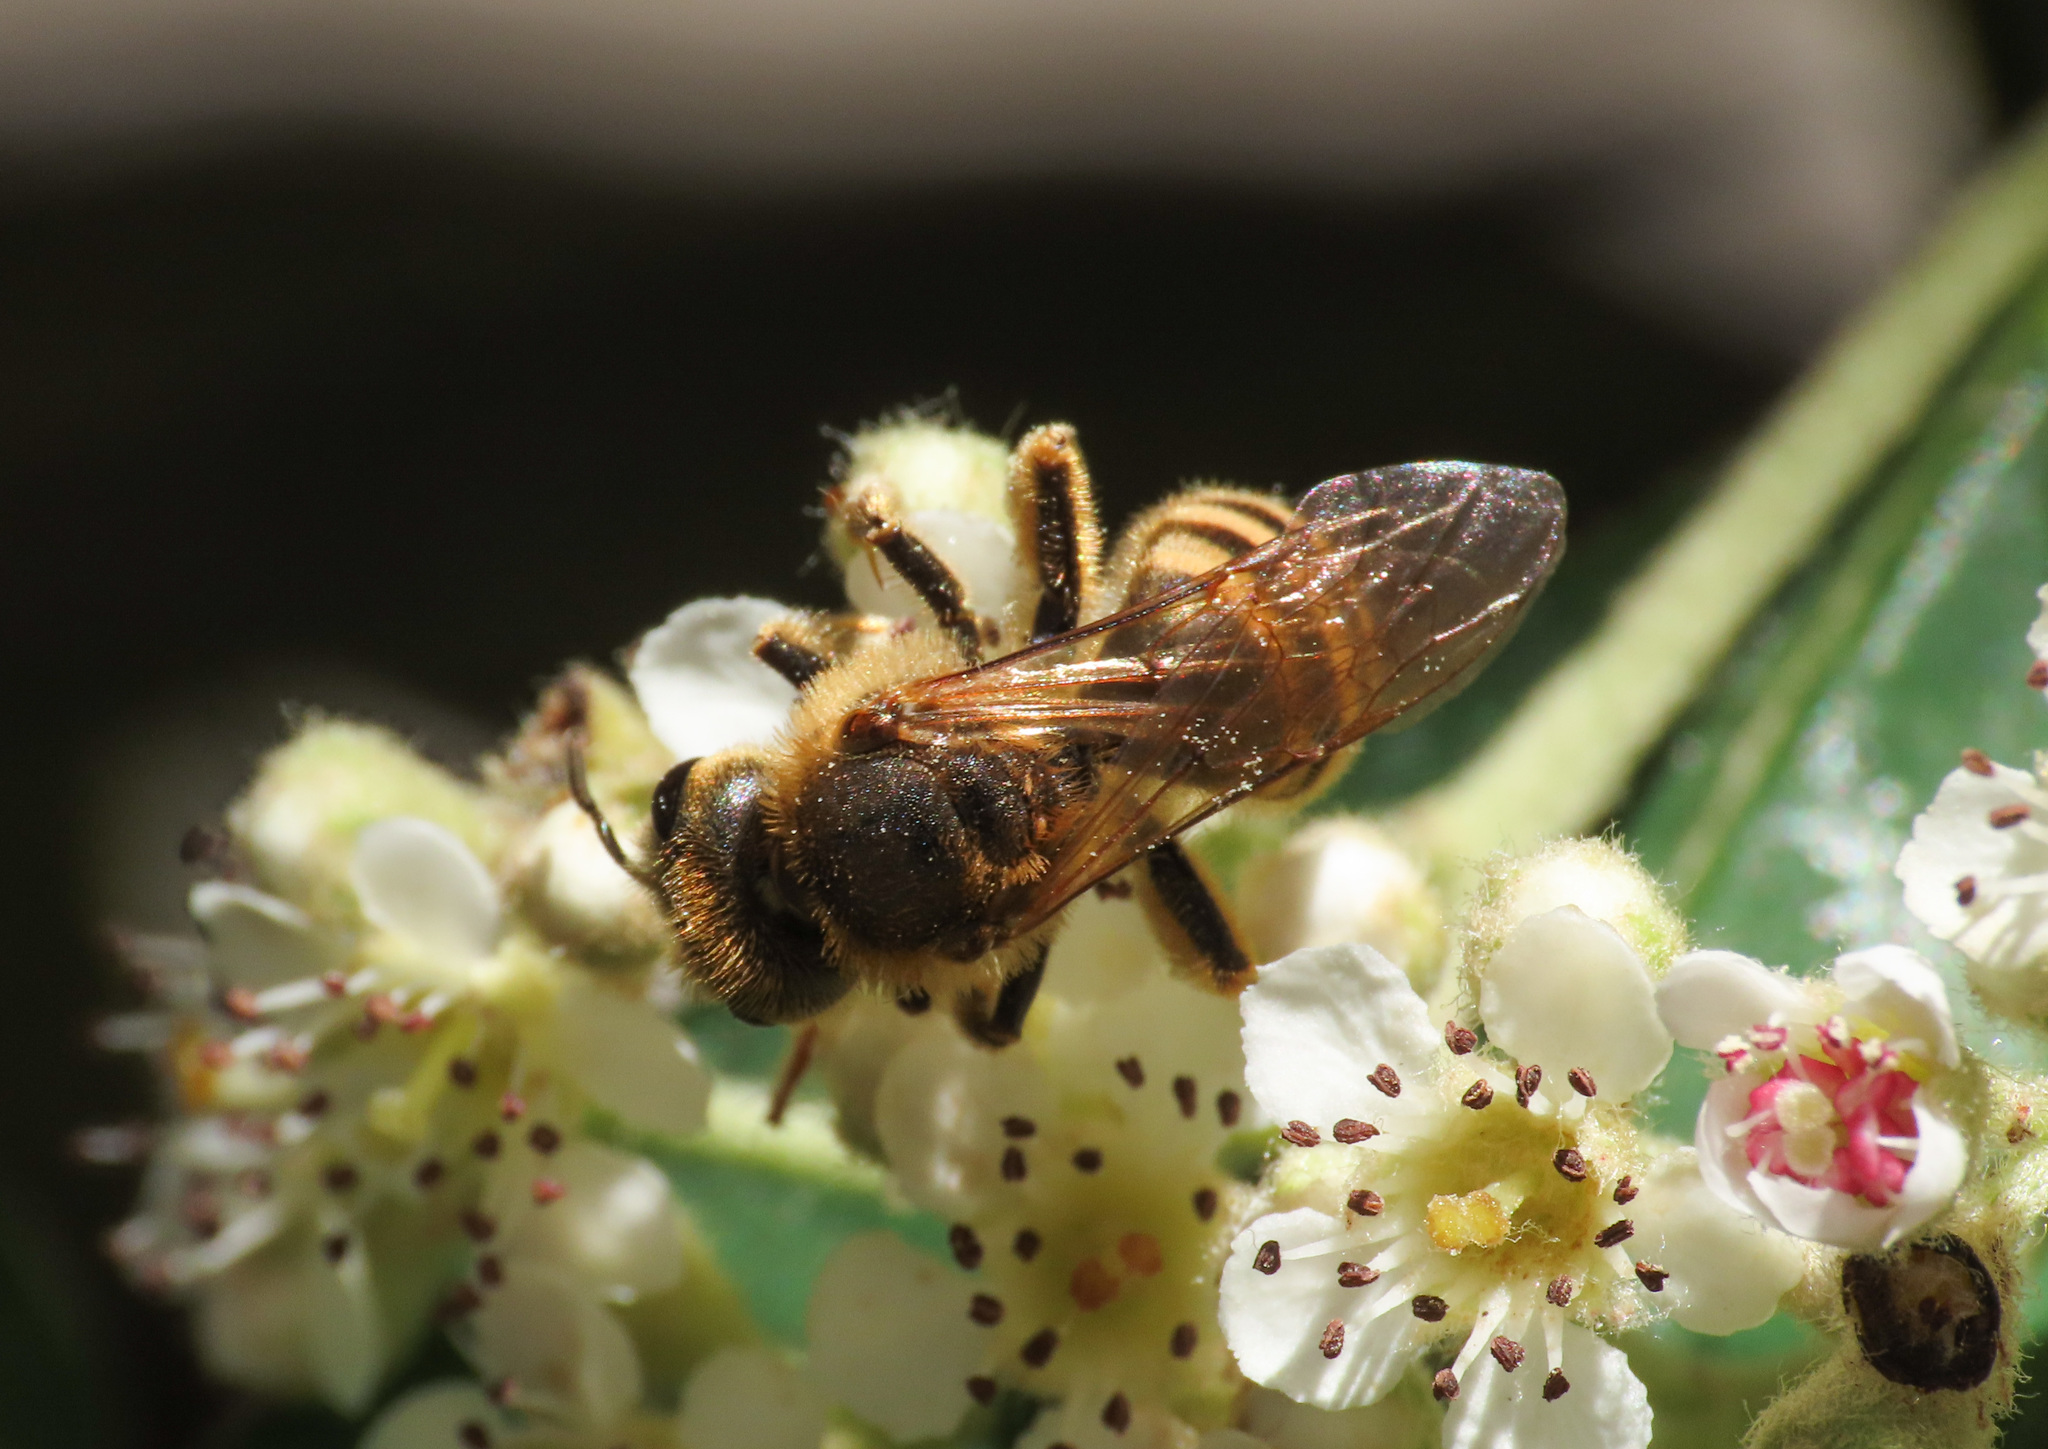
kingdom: Animalia
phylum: Arthropoda
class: Insecta
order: Hymenoptera
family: Halictidae
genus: Halictus
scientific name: Halictus scabiosae
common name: Great banded furrow bee
